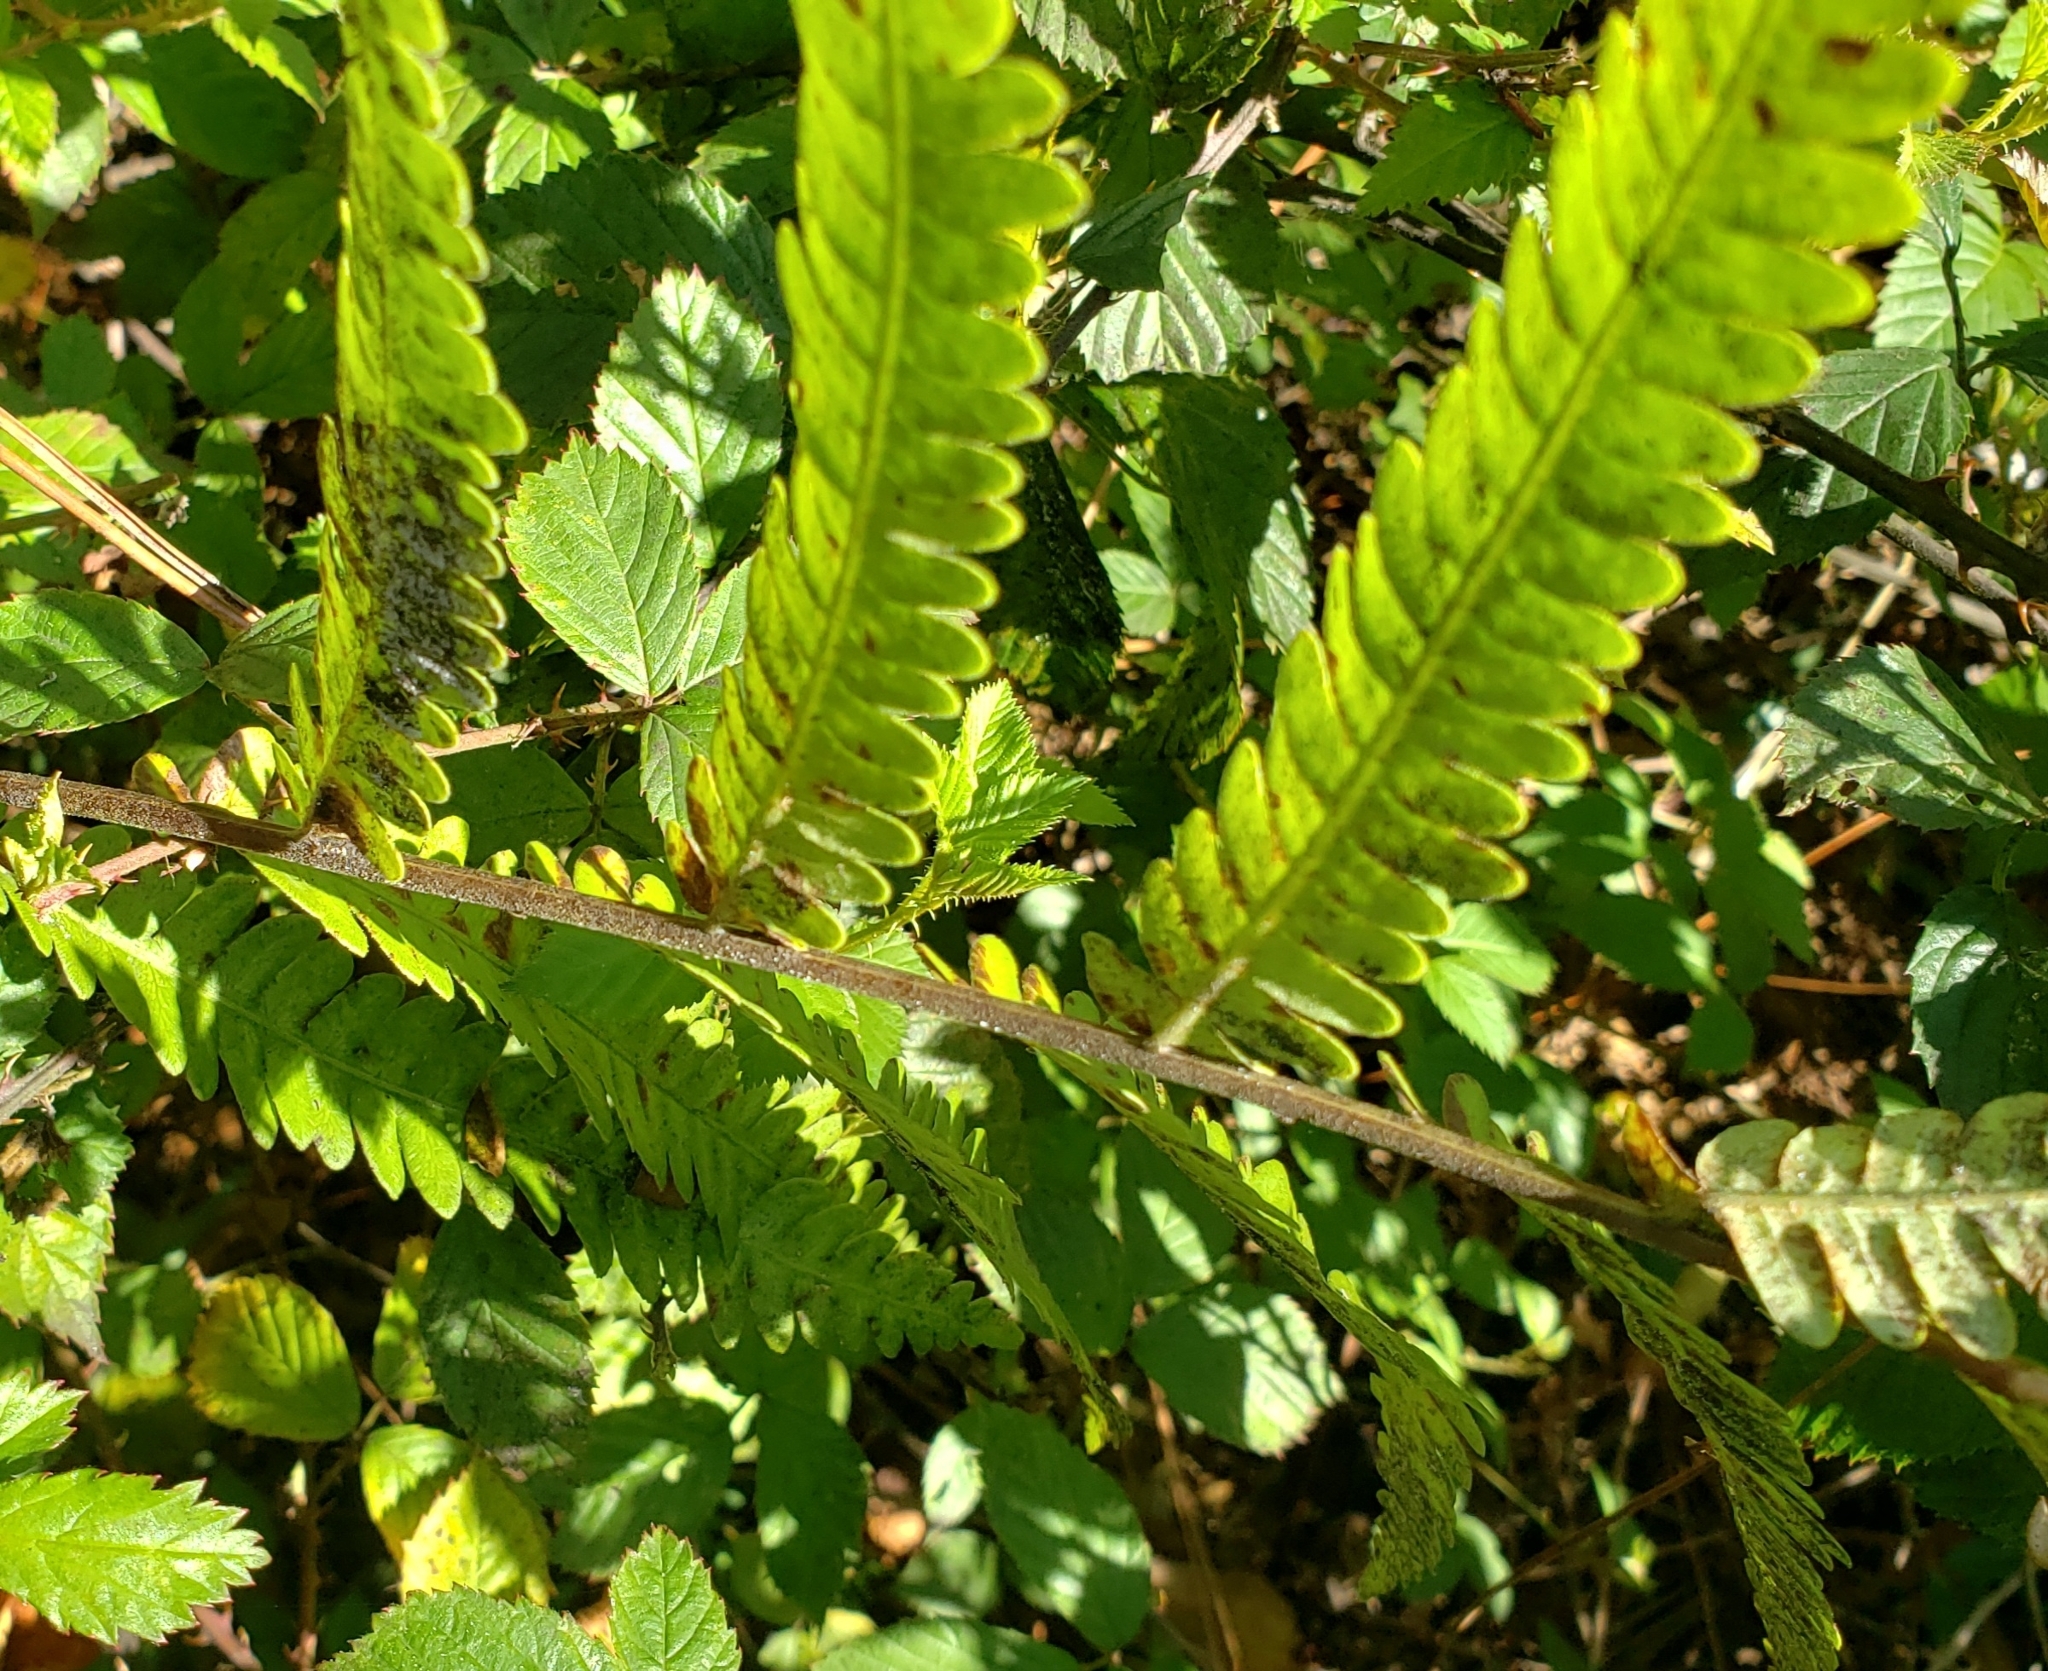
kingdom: Plantae
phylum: Tracheophyta
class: Polypodiopsida
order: Polypodiales
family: Blechnaceae
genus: Anchistea
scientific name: Anchistea virginica
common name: Virginia chain fern
